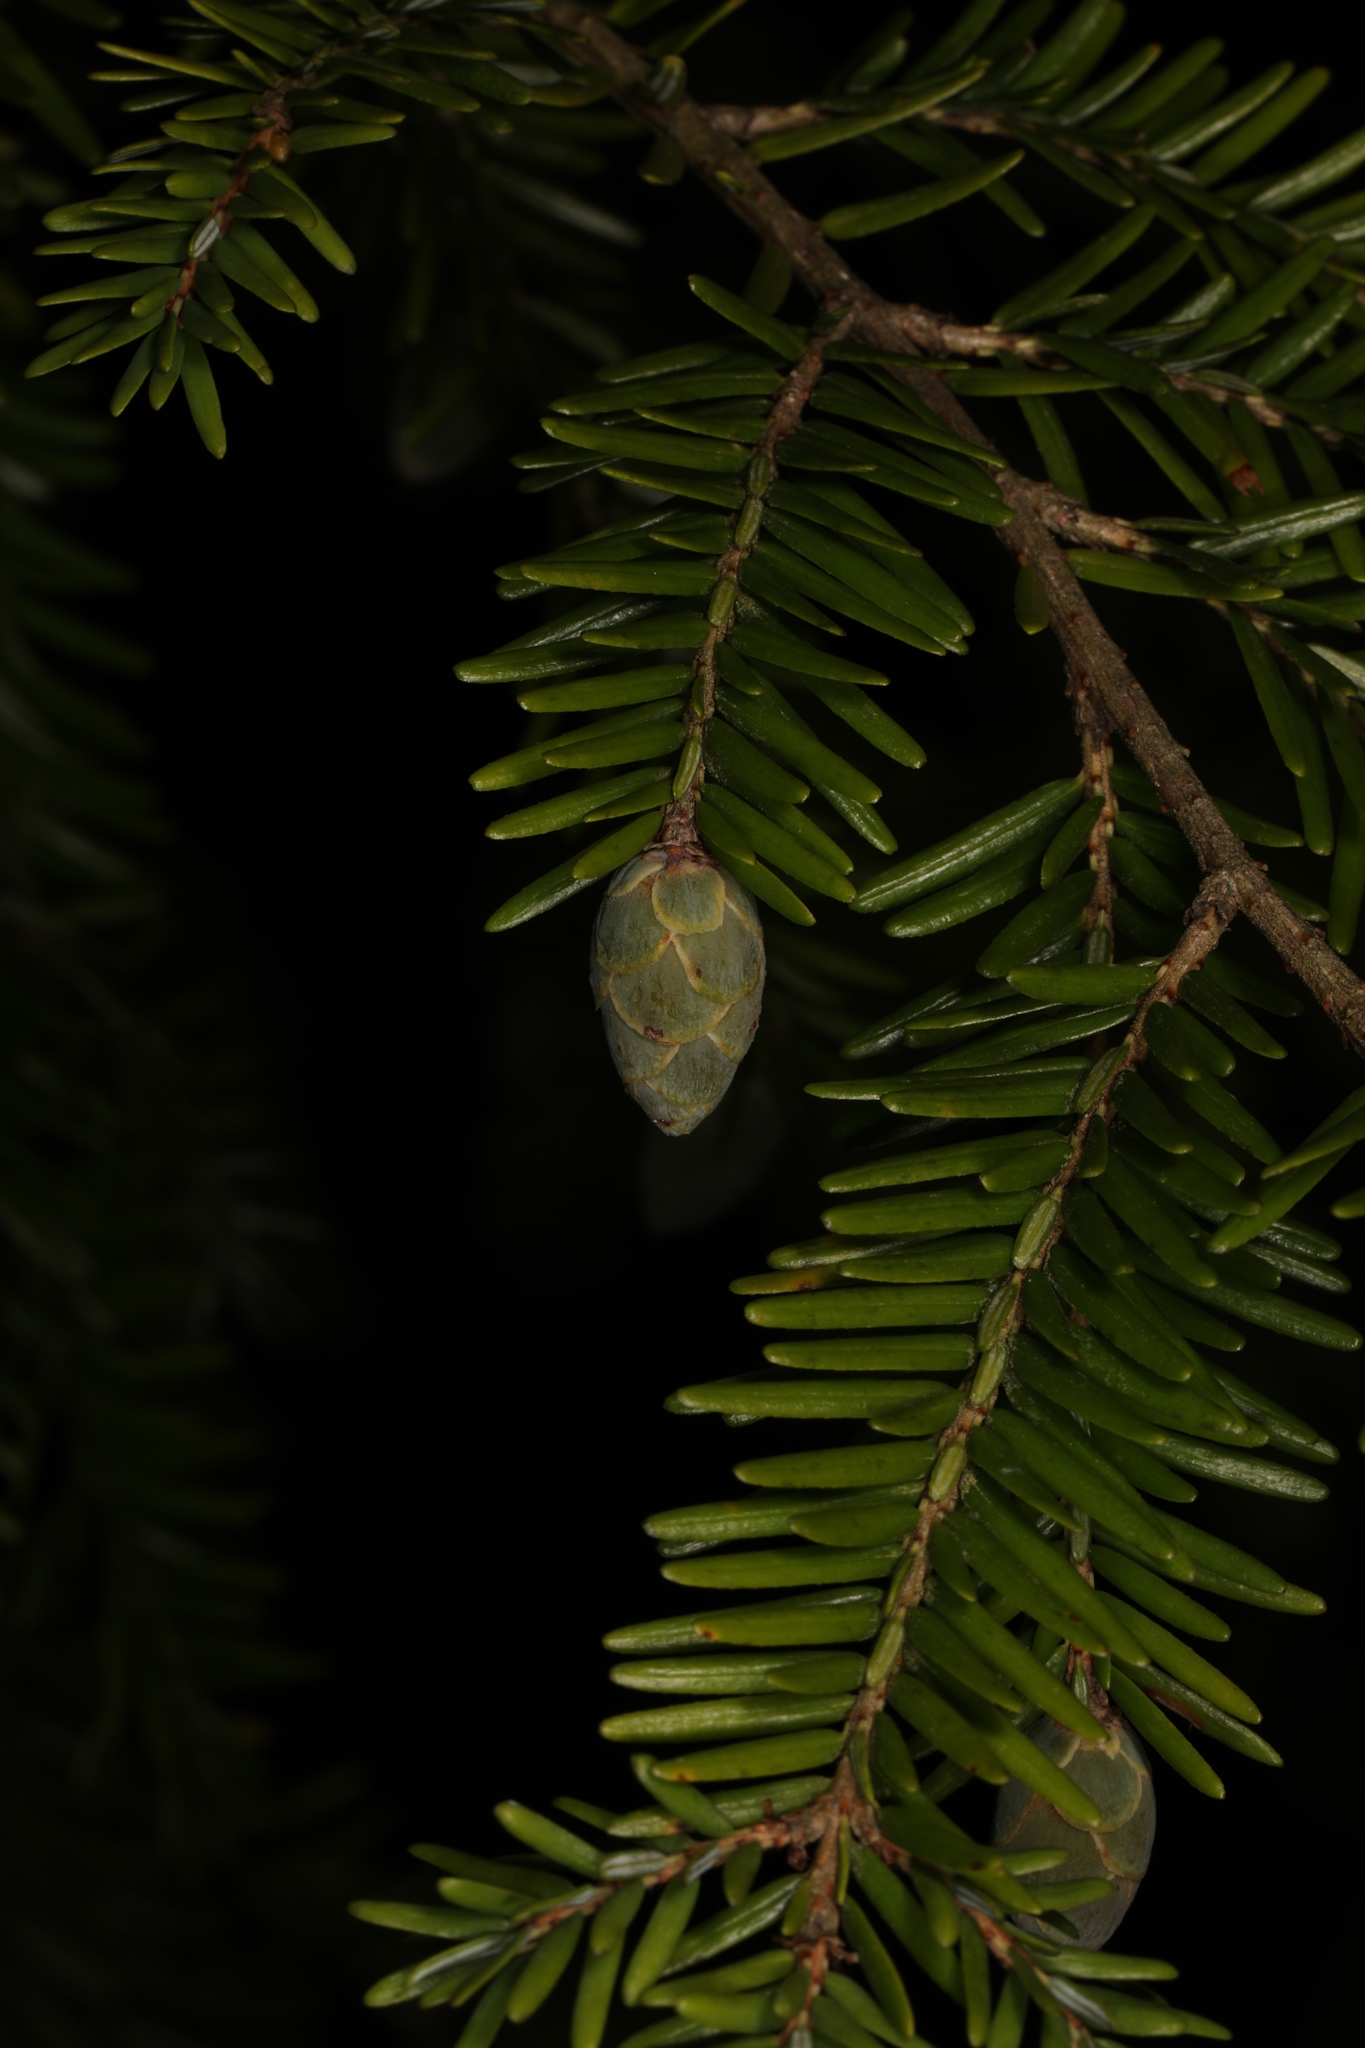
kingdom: Plantae
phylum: Tracheophyta
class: Pinopsida
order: Pinales
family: Pinaceae
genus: Tsuga
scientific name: Tsuga canadensis
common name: Eastern hemlock
